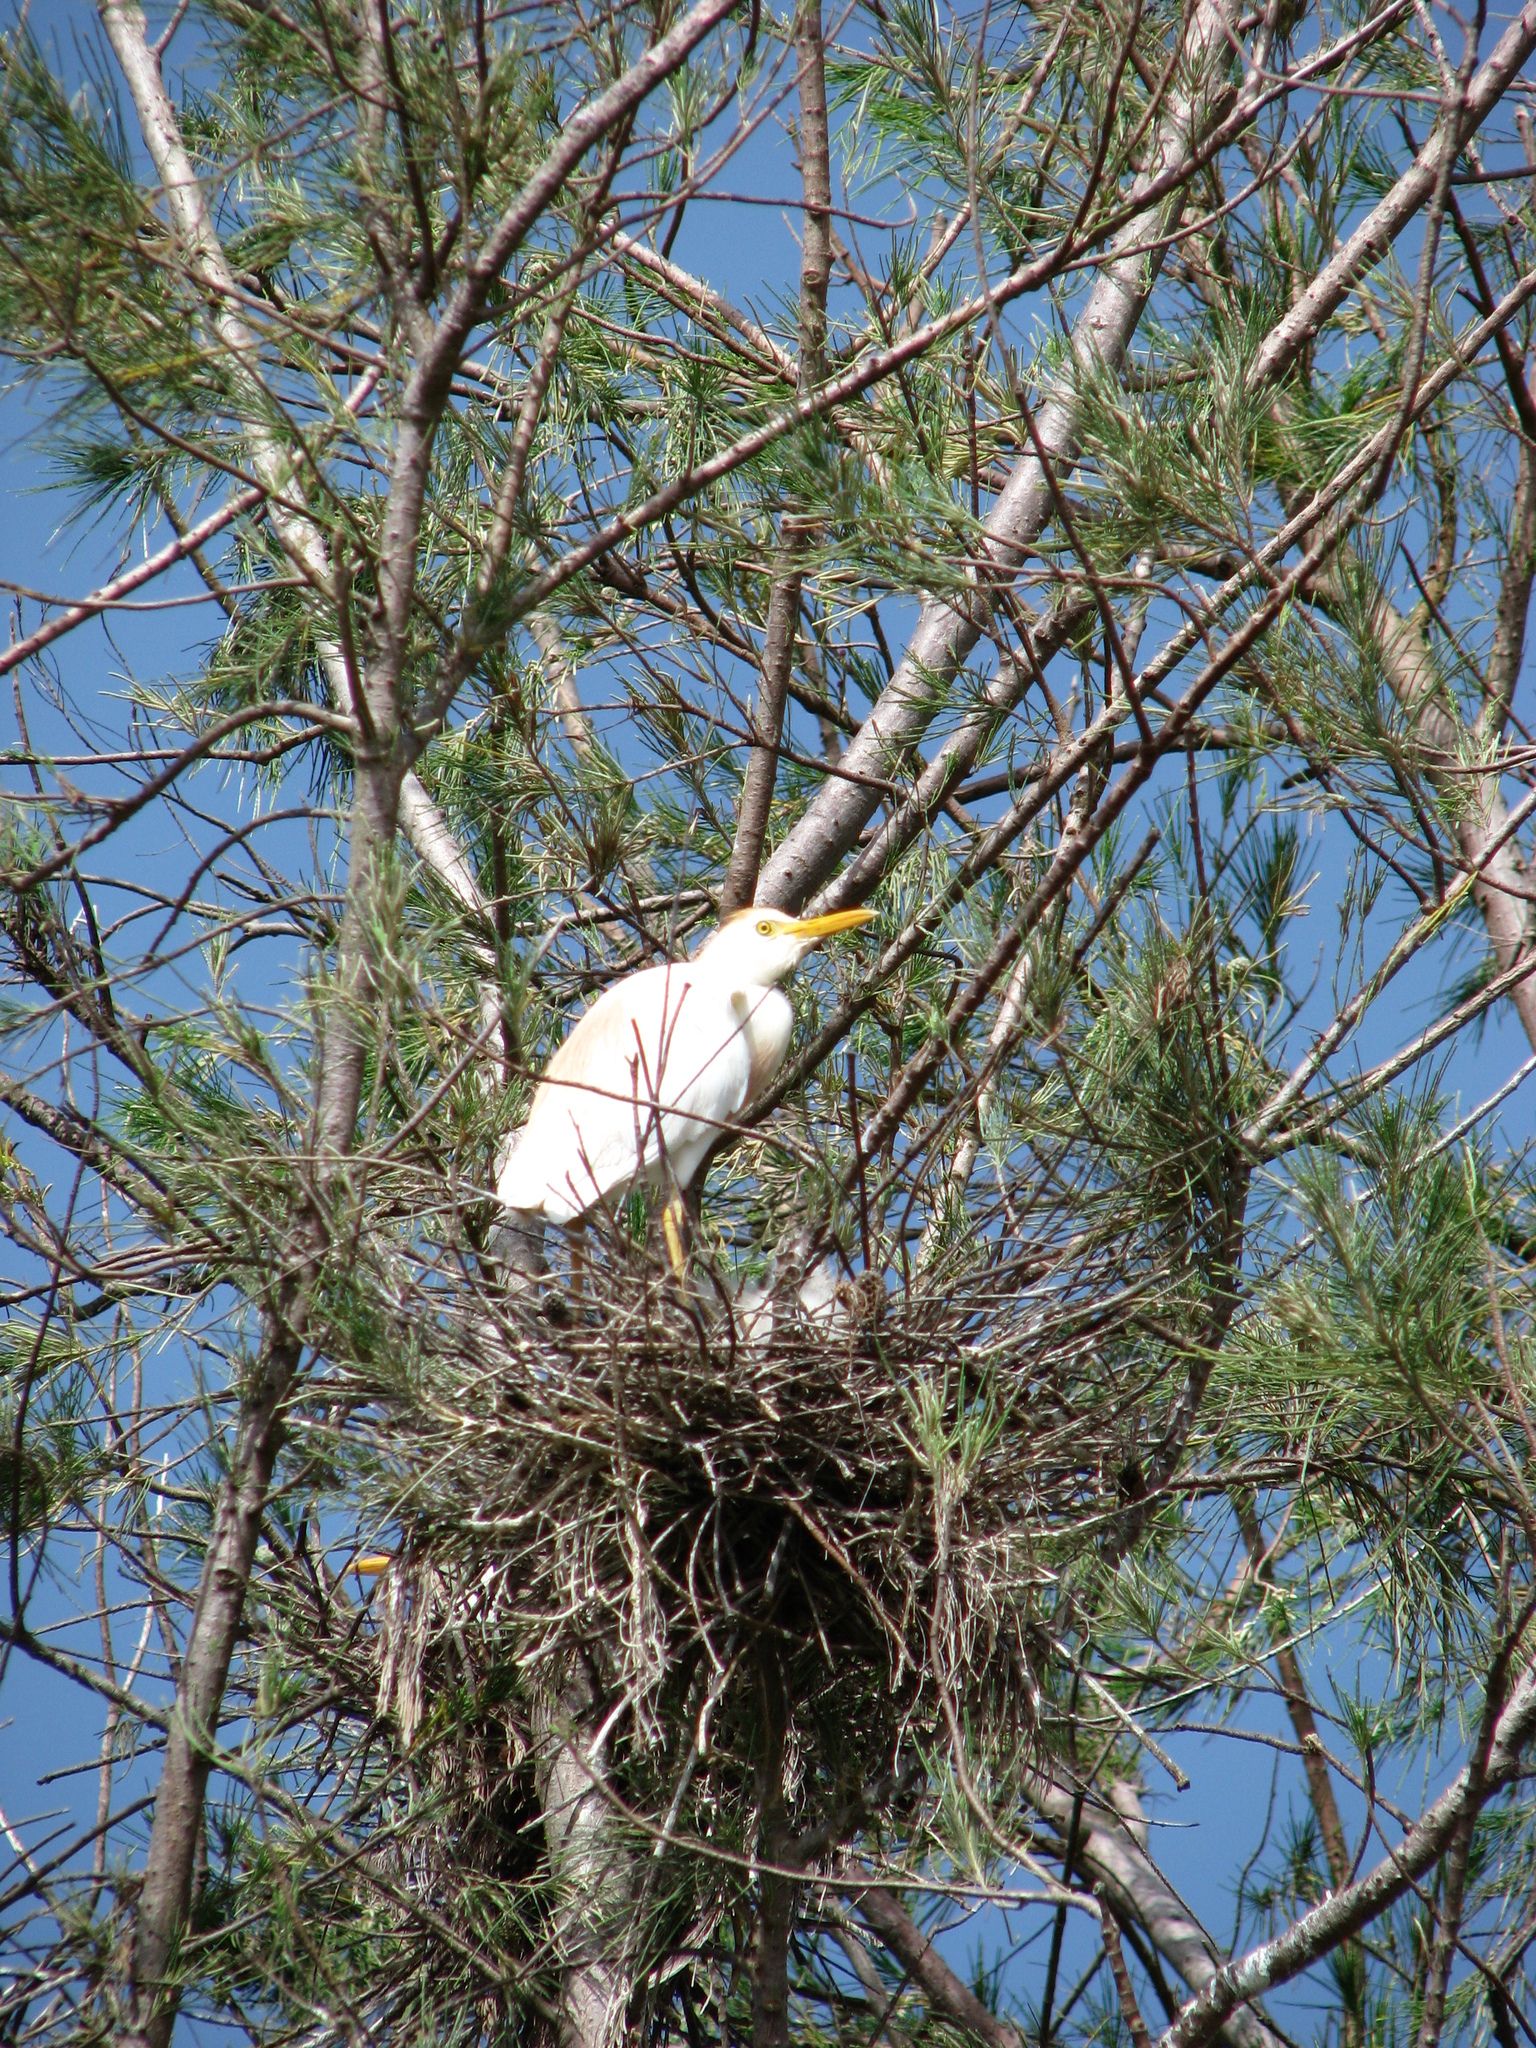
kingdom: Animalia
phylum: Chordata
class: Aves
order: Pelecaniformes
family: Ardeidae
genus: Bubulcus
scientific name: Bubulcus ibis
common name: Cattle egret
